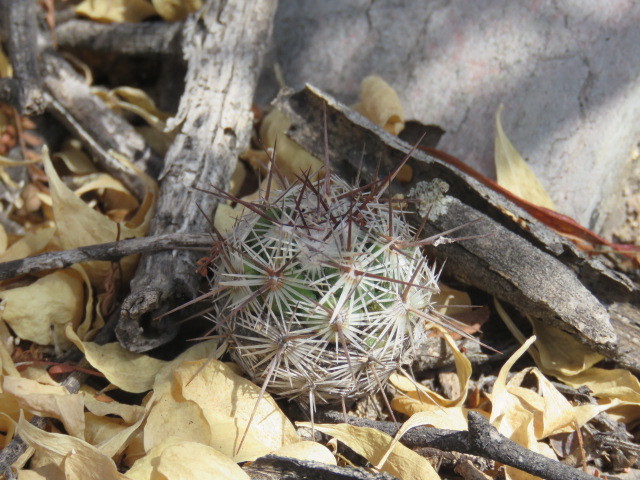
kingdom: Plantae
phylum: Tracheophyta
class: Magnoliopsida
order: Caryophyllales
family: Cactaceae
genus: Cochemiea
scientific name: Cochemiea conoidea
